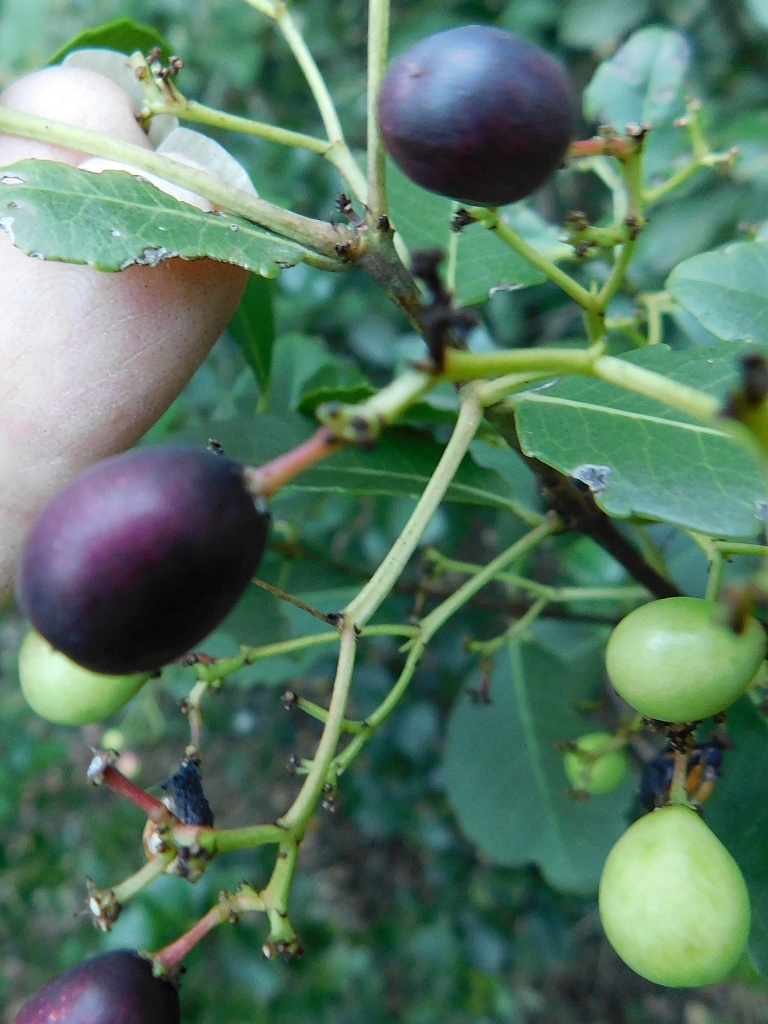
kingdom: Plantae
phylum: Tracheophyta
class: Magnoliopsida
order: Celastrales
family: Celastraceae
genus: Cassine
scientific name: Cassine peragua
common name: Cape saffron
